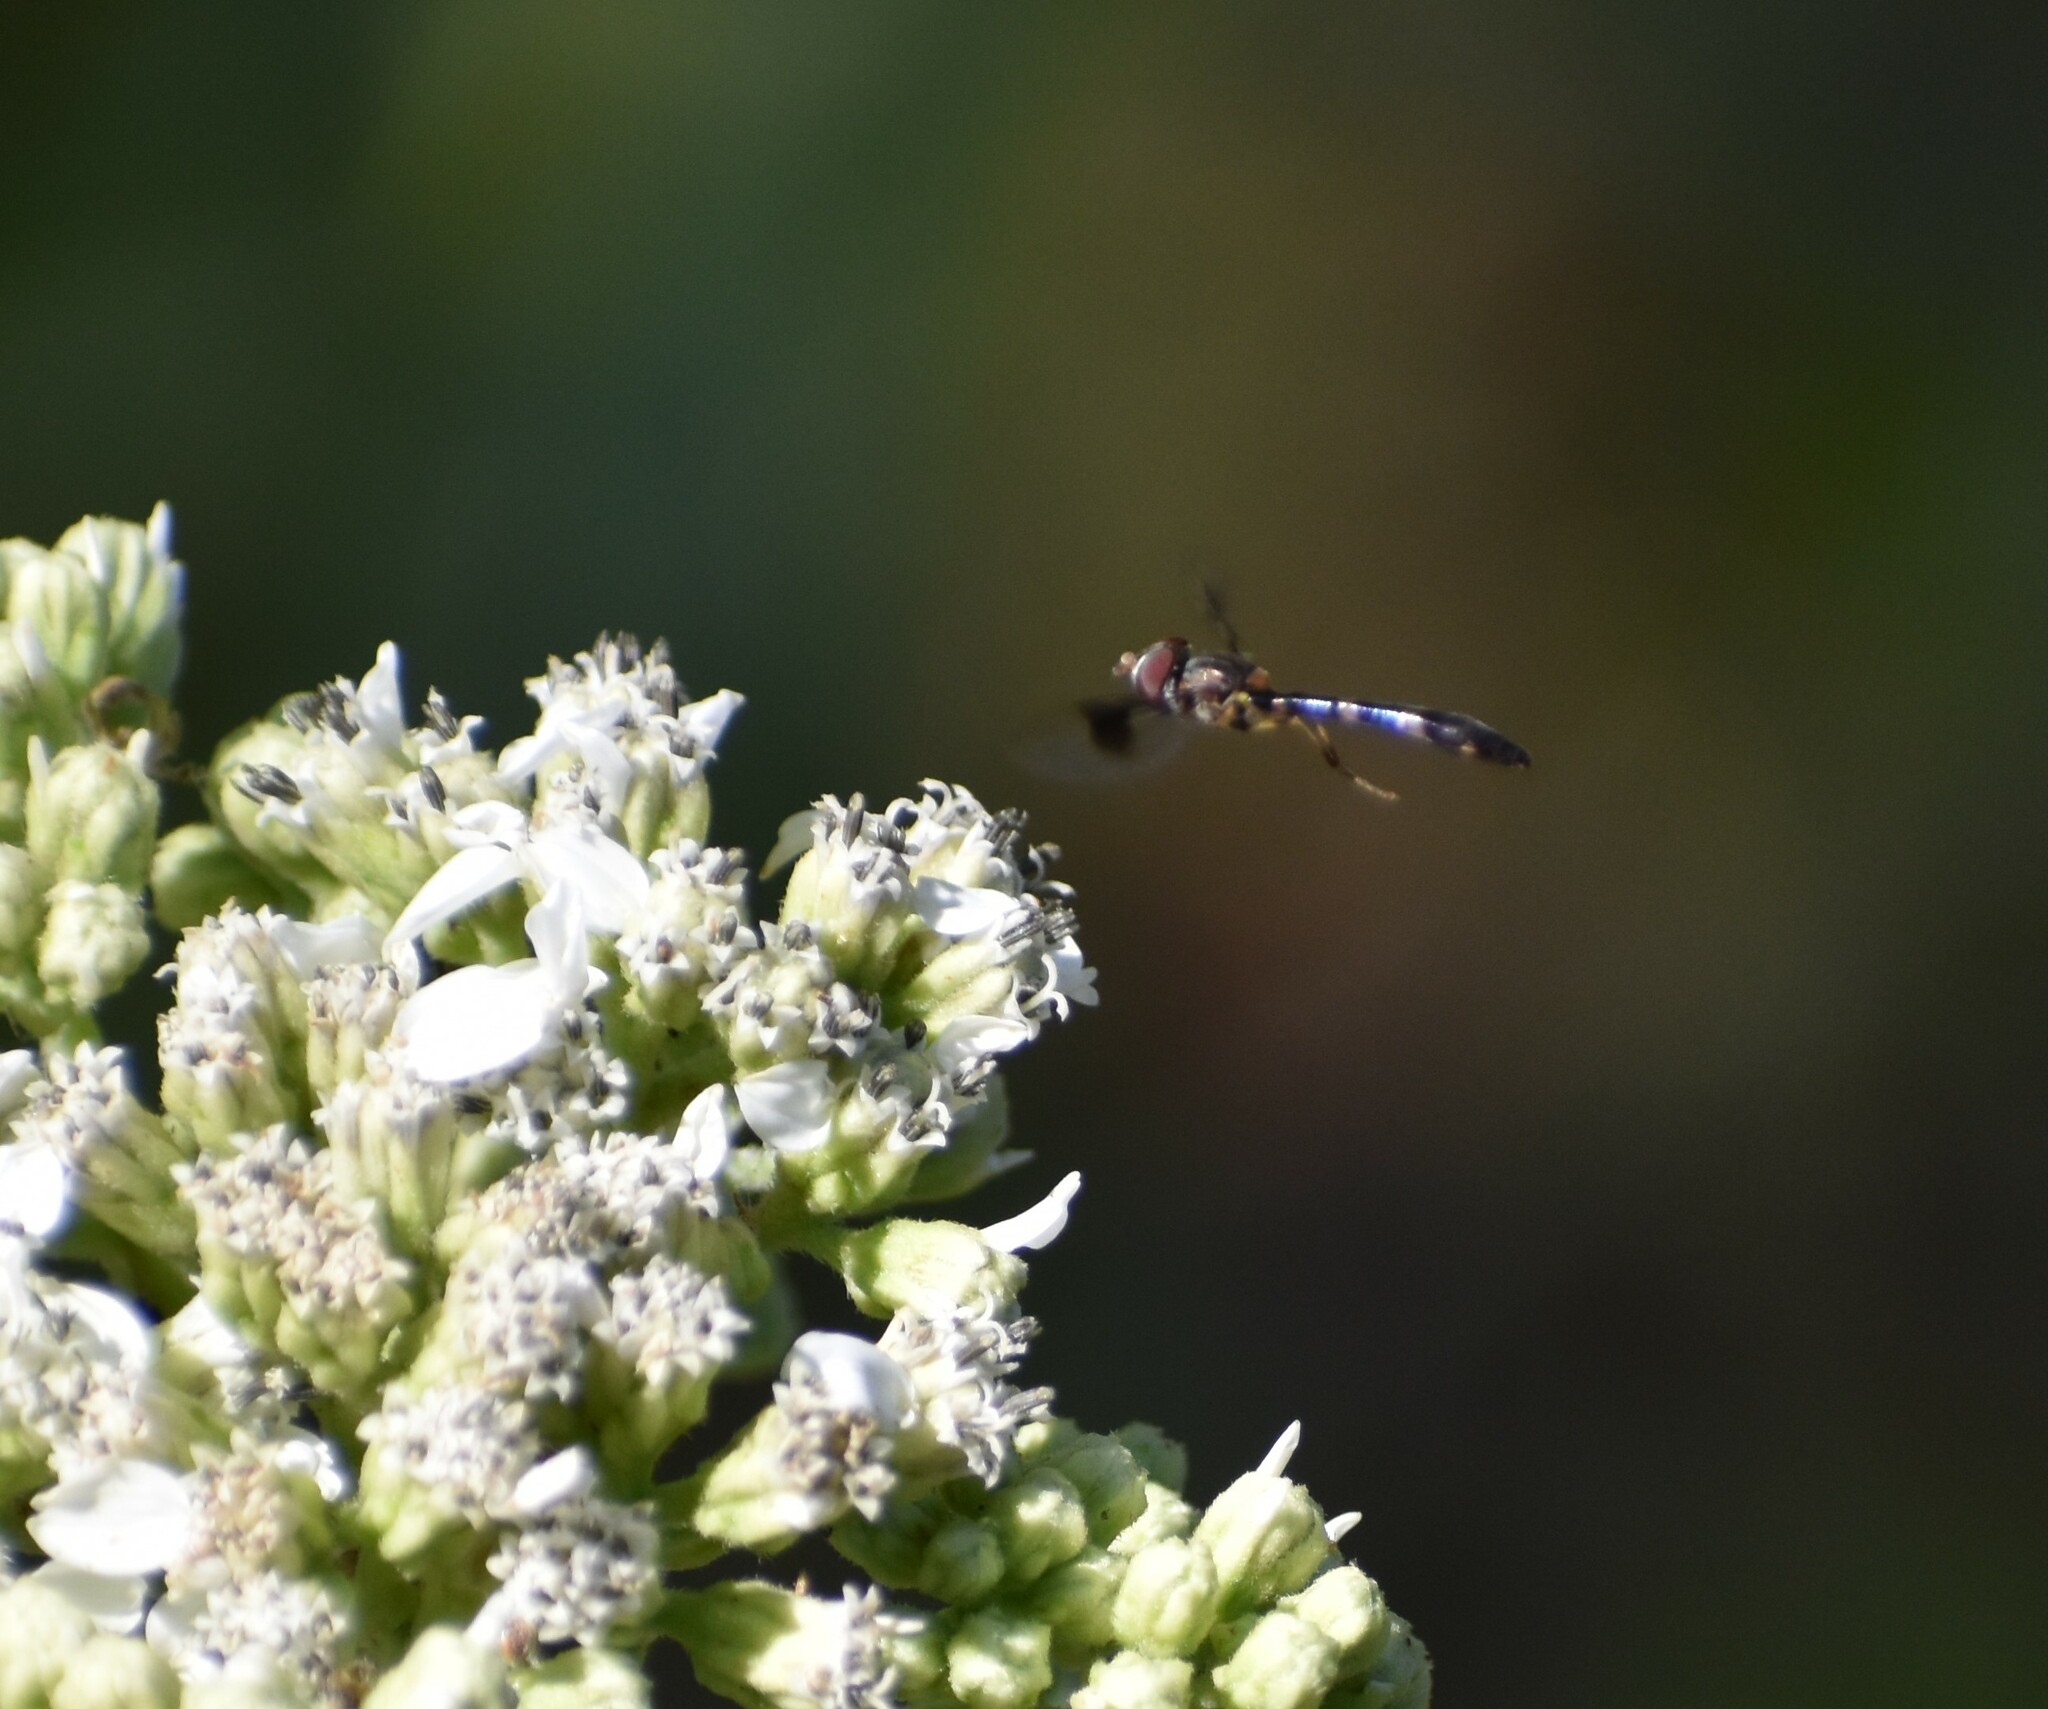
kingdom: Animalia
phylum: Arthropoda
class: Insecta
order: Diptera
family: Syrphidae
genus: Hypocritanus
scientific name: Hypocritanus fascipennis
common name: Eastern band-winged hover fly
